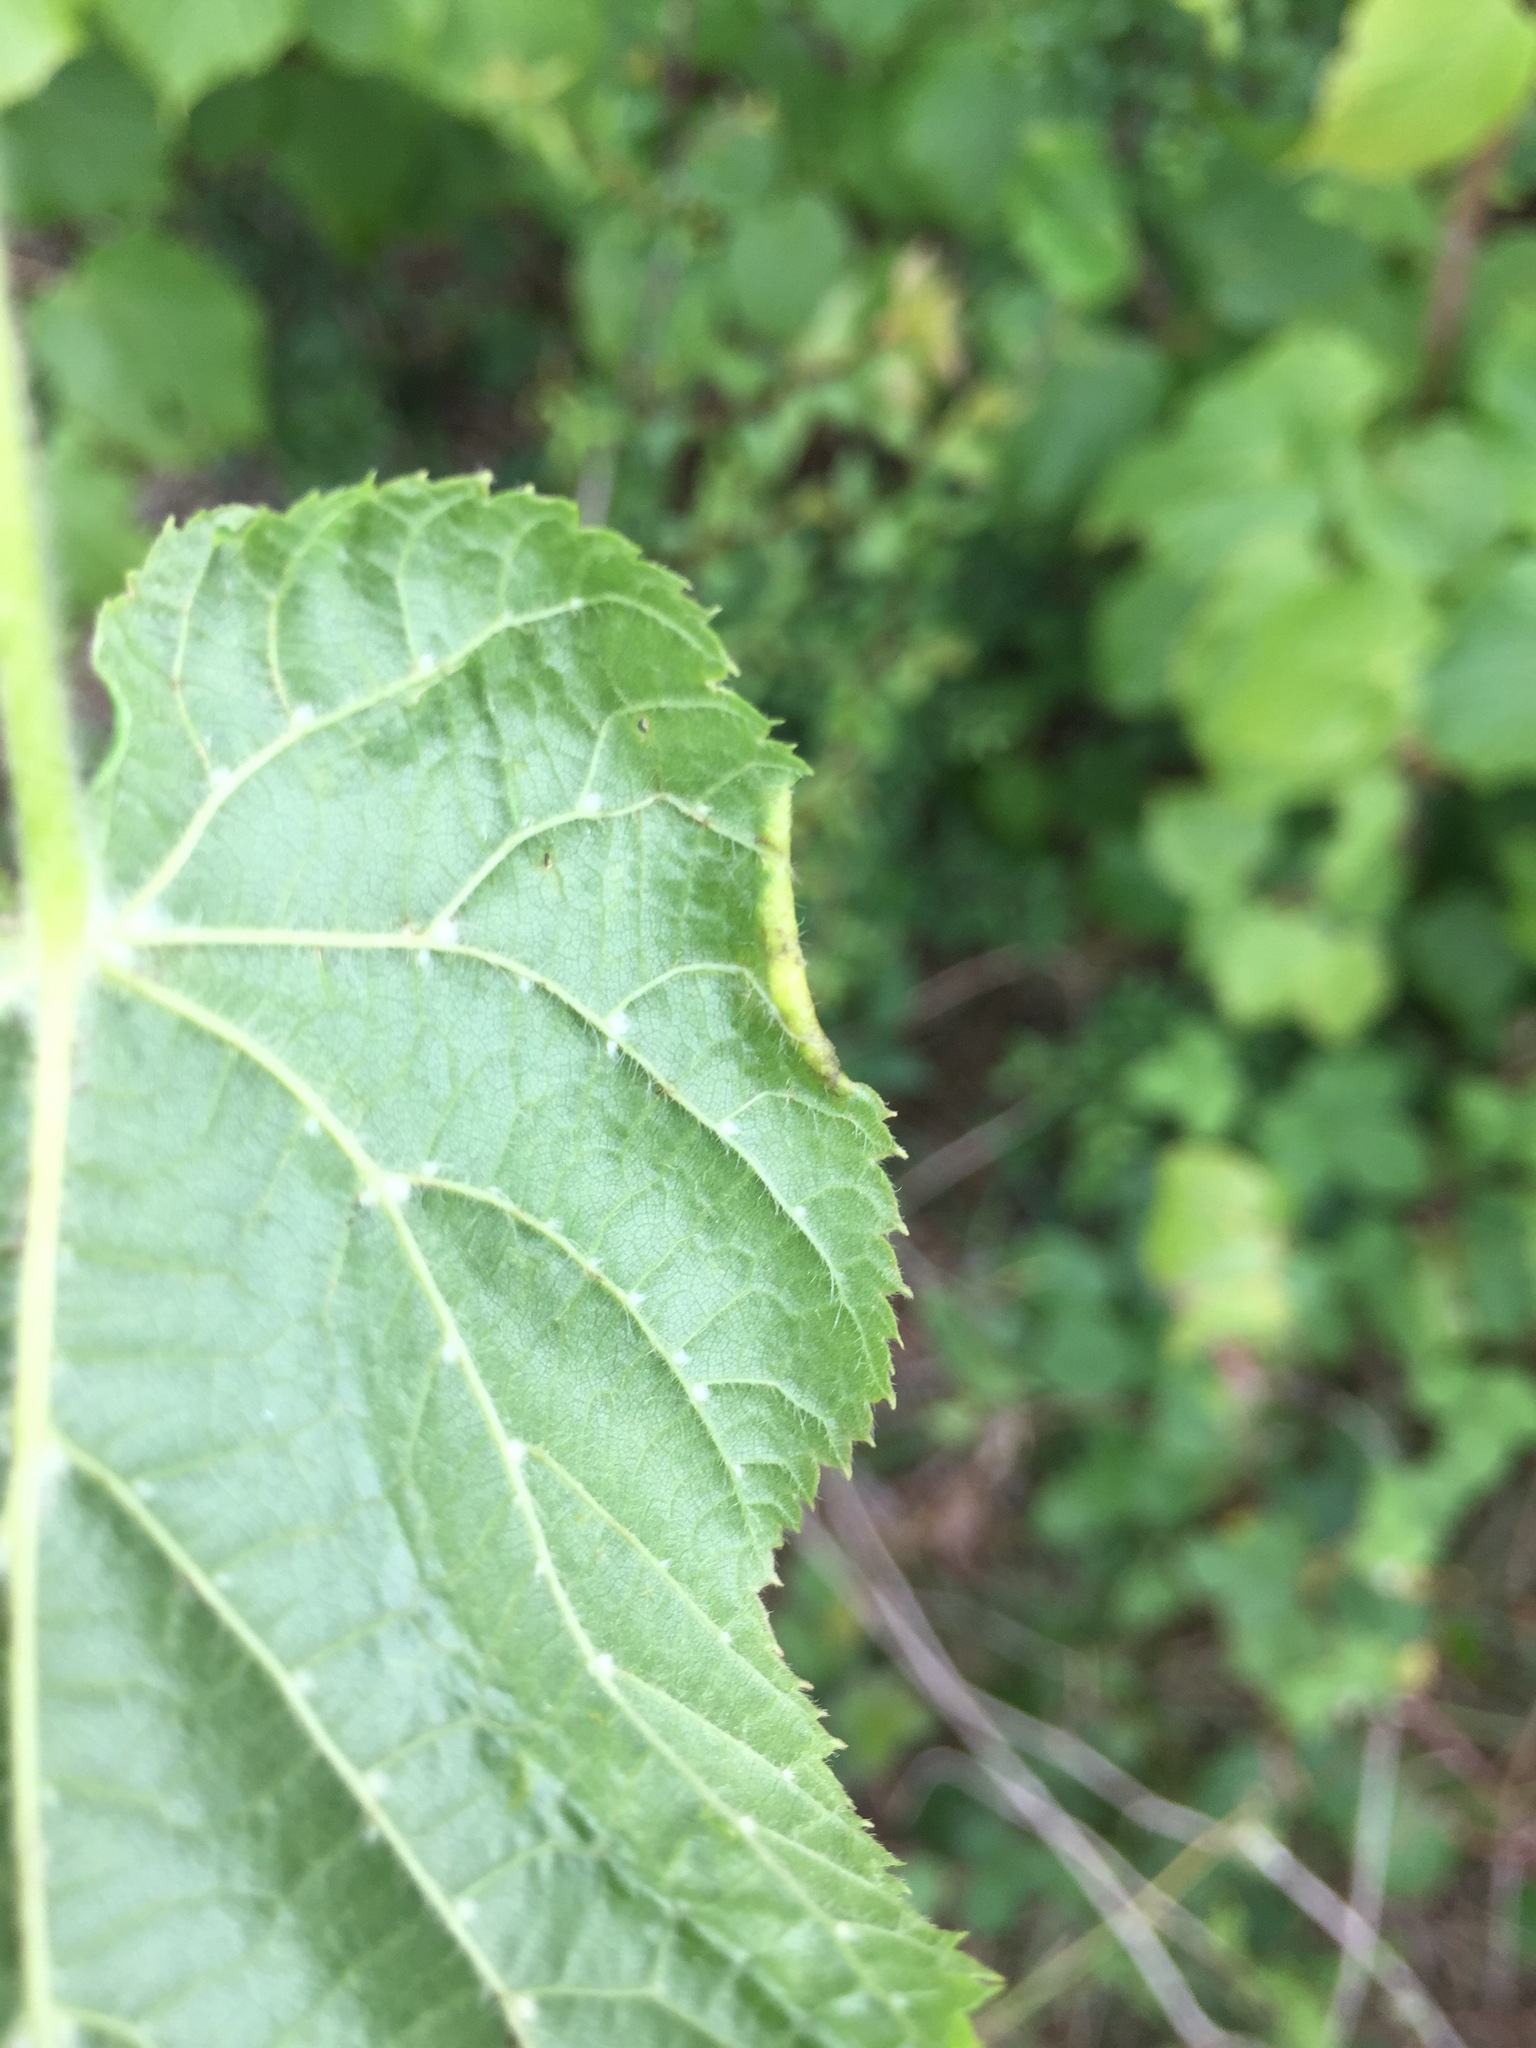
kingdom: Animalia
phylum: Arthropoda
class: Arachnida
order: Trombidiformes
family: Phytoptidae
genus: Phytoptus
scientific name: Phytoptus tetratrichus
